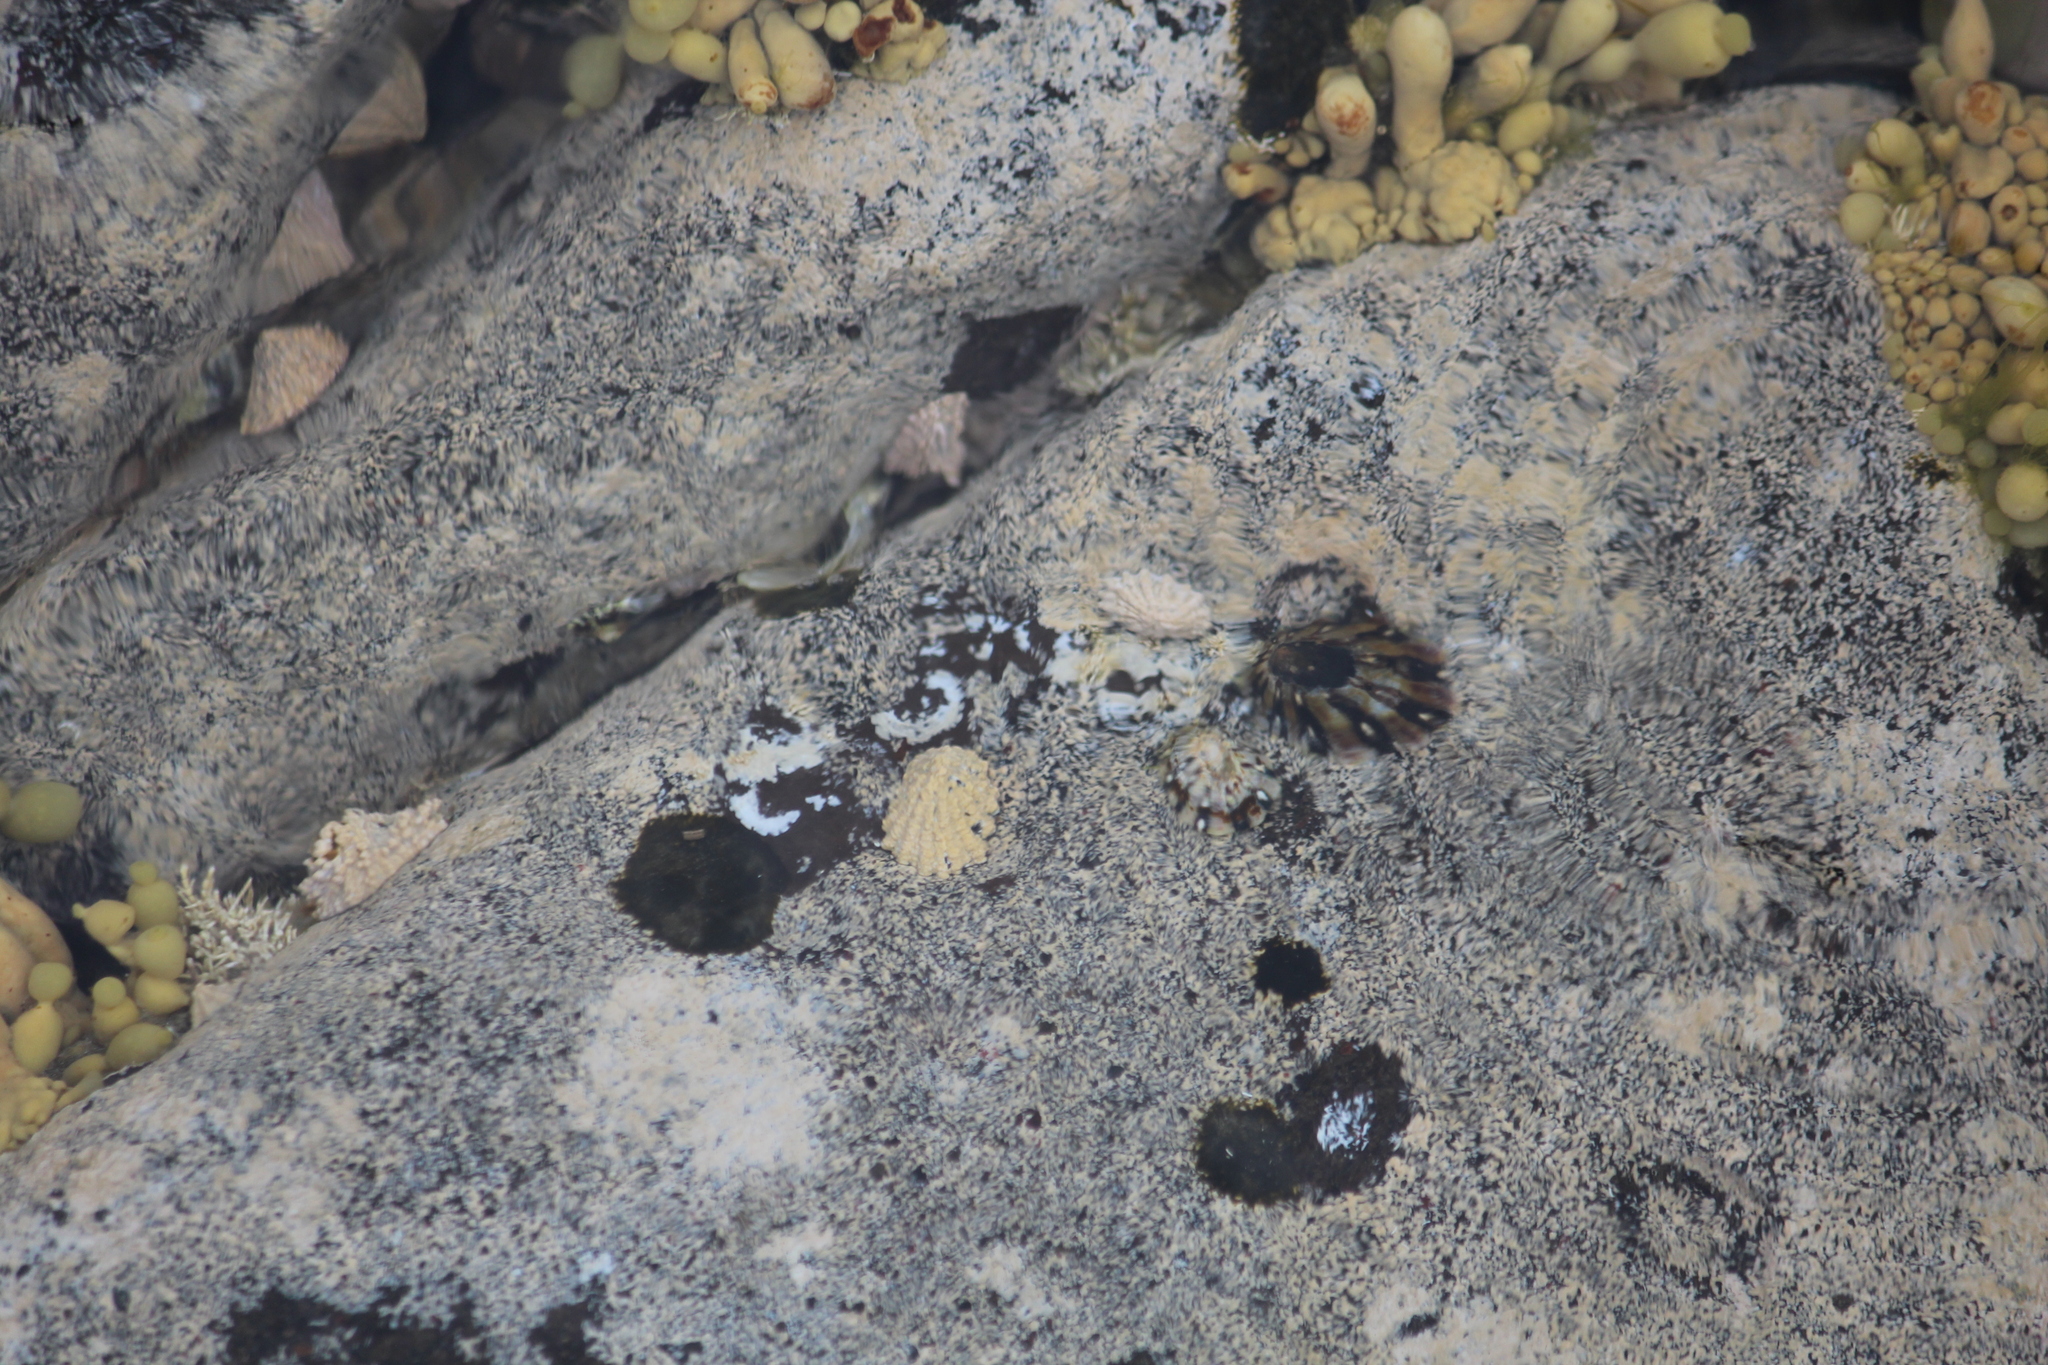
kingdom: Animalia
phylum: Mollusca
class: Gastropoda
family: Lottiidae
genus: Patelloida
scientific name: Patelloida corticata
